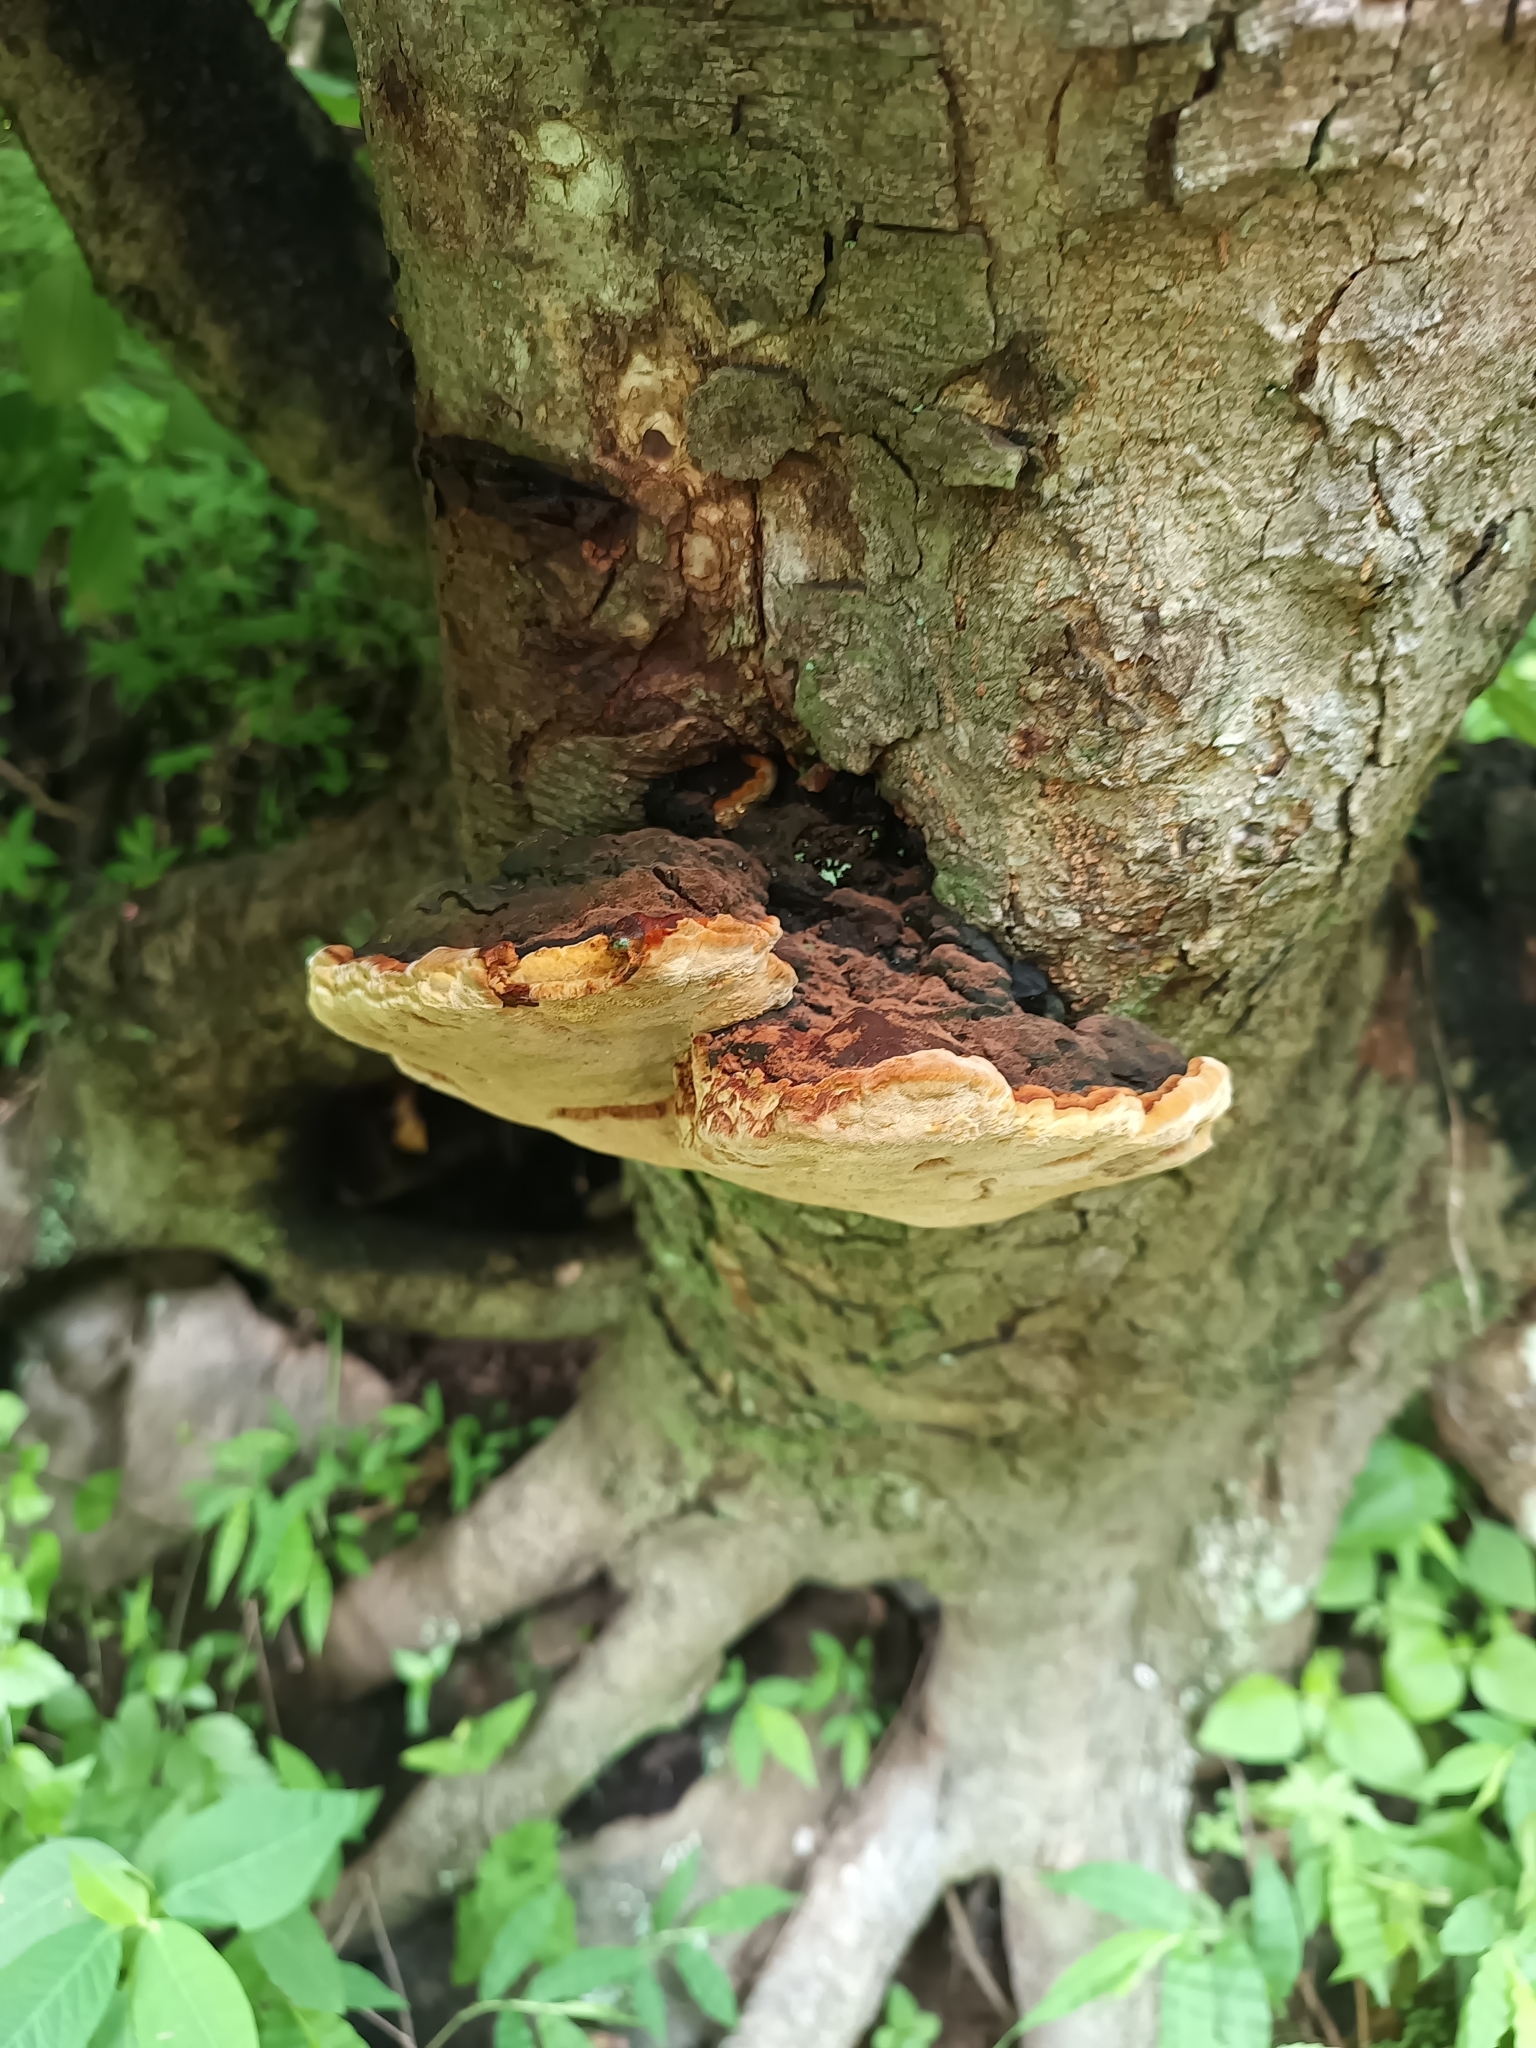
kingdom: Fungi
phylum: Basidiomycota
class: Agaricomycetes
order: Hymenochaetales
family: Hymenochaetaceae
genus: Phellinus
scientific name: Phellinus robiniae
